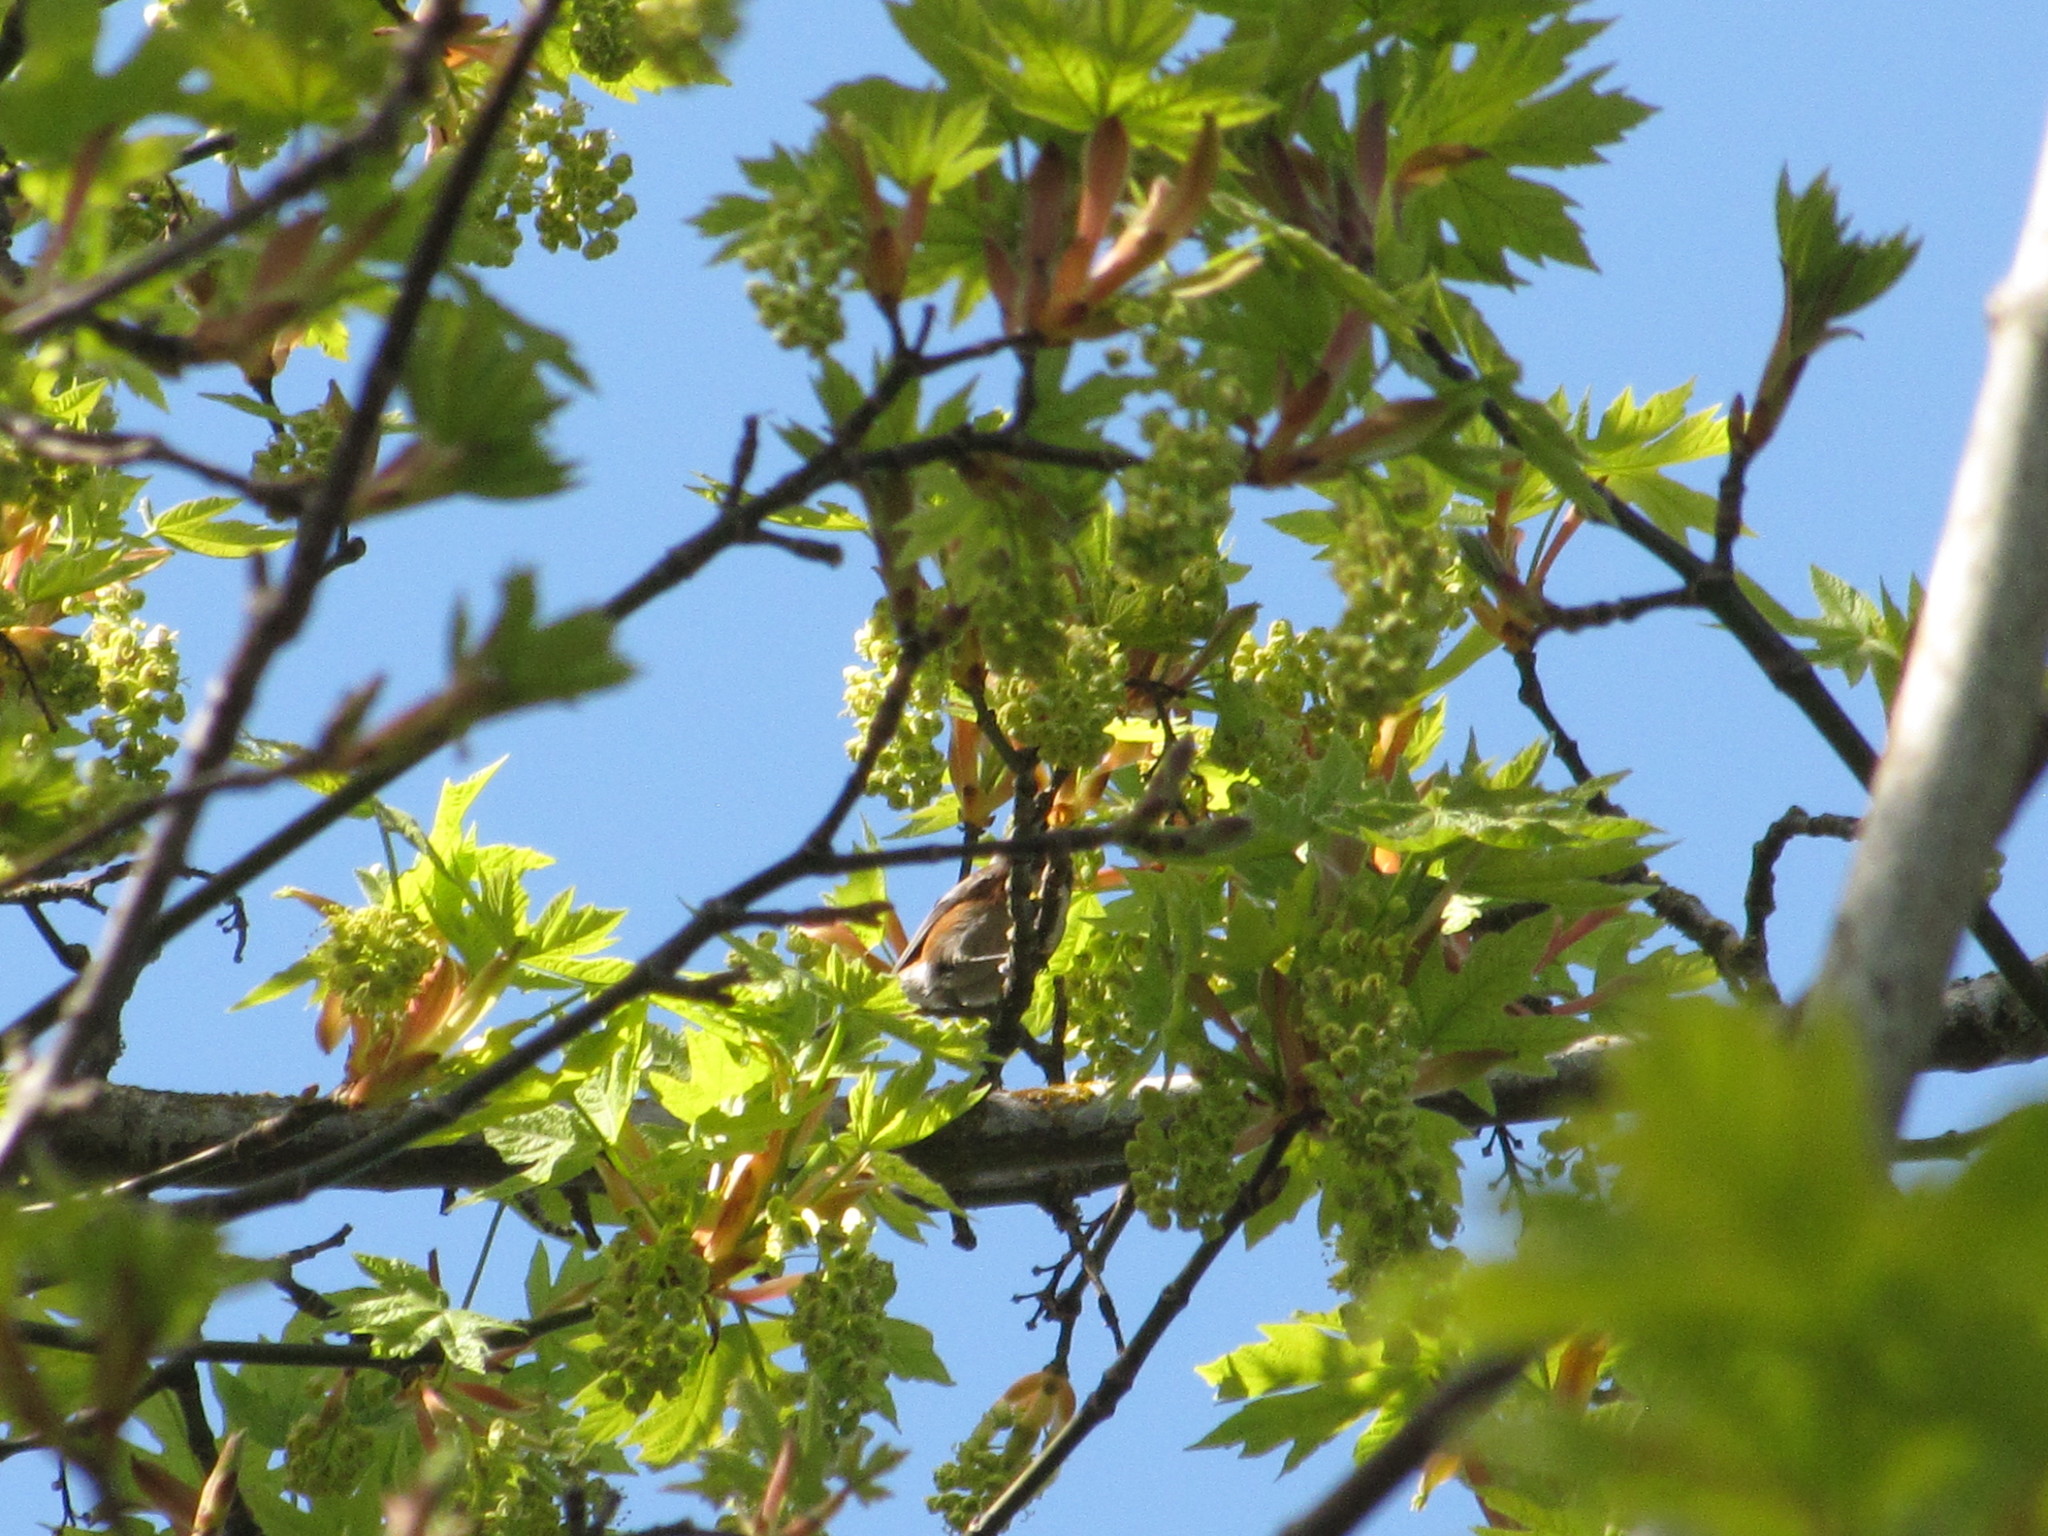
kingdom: Animalia
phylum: Chordata
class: Aves
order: Passeriformes
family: Paridae
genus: Poecile
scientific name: Poecile rufescens
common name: Chestnut-backed chickadee
